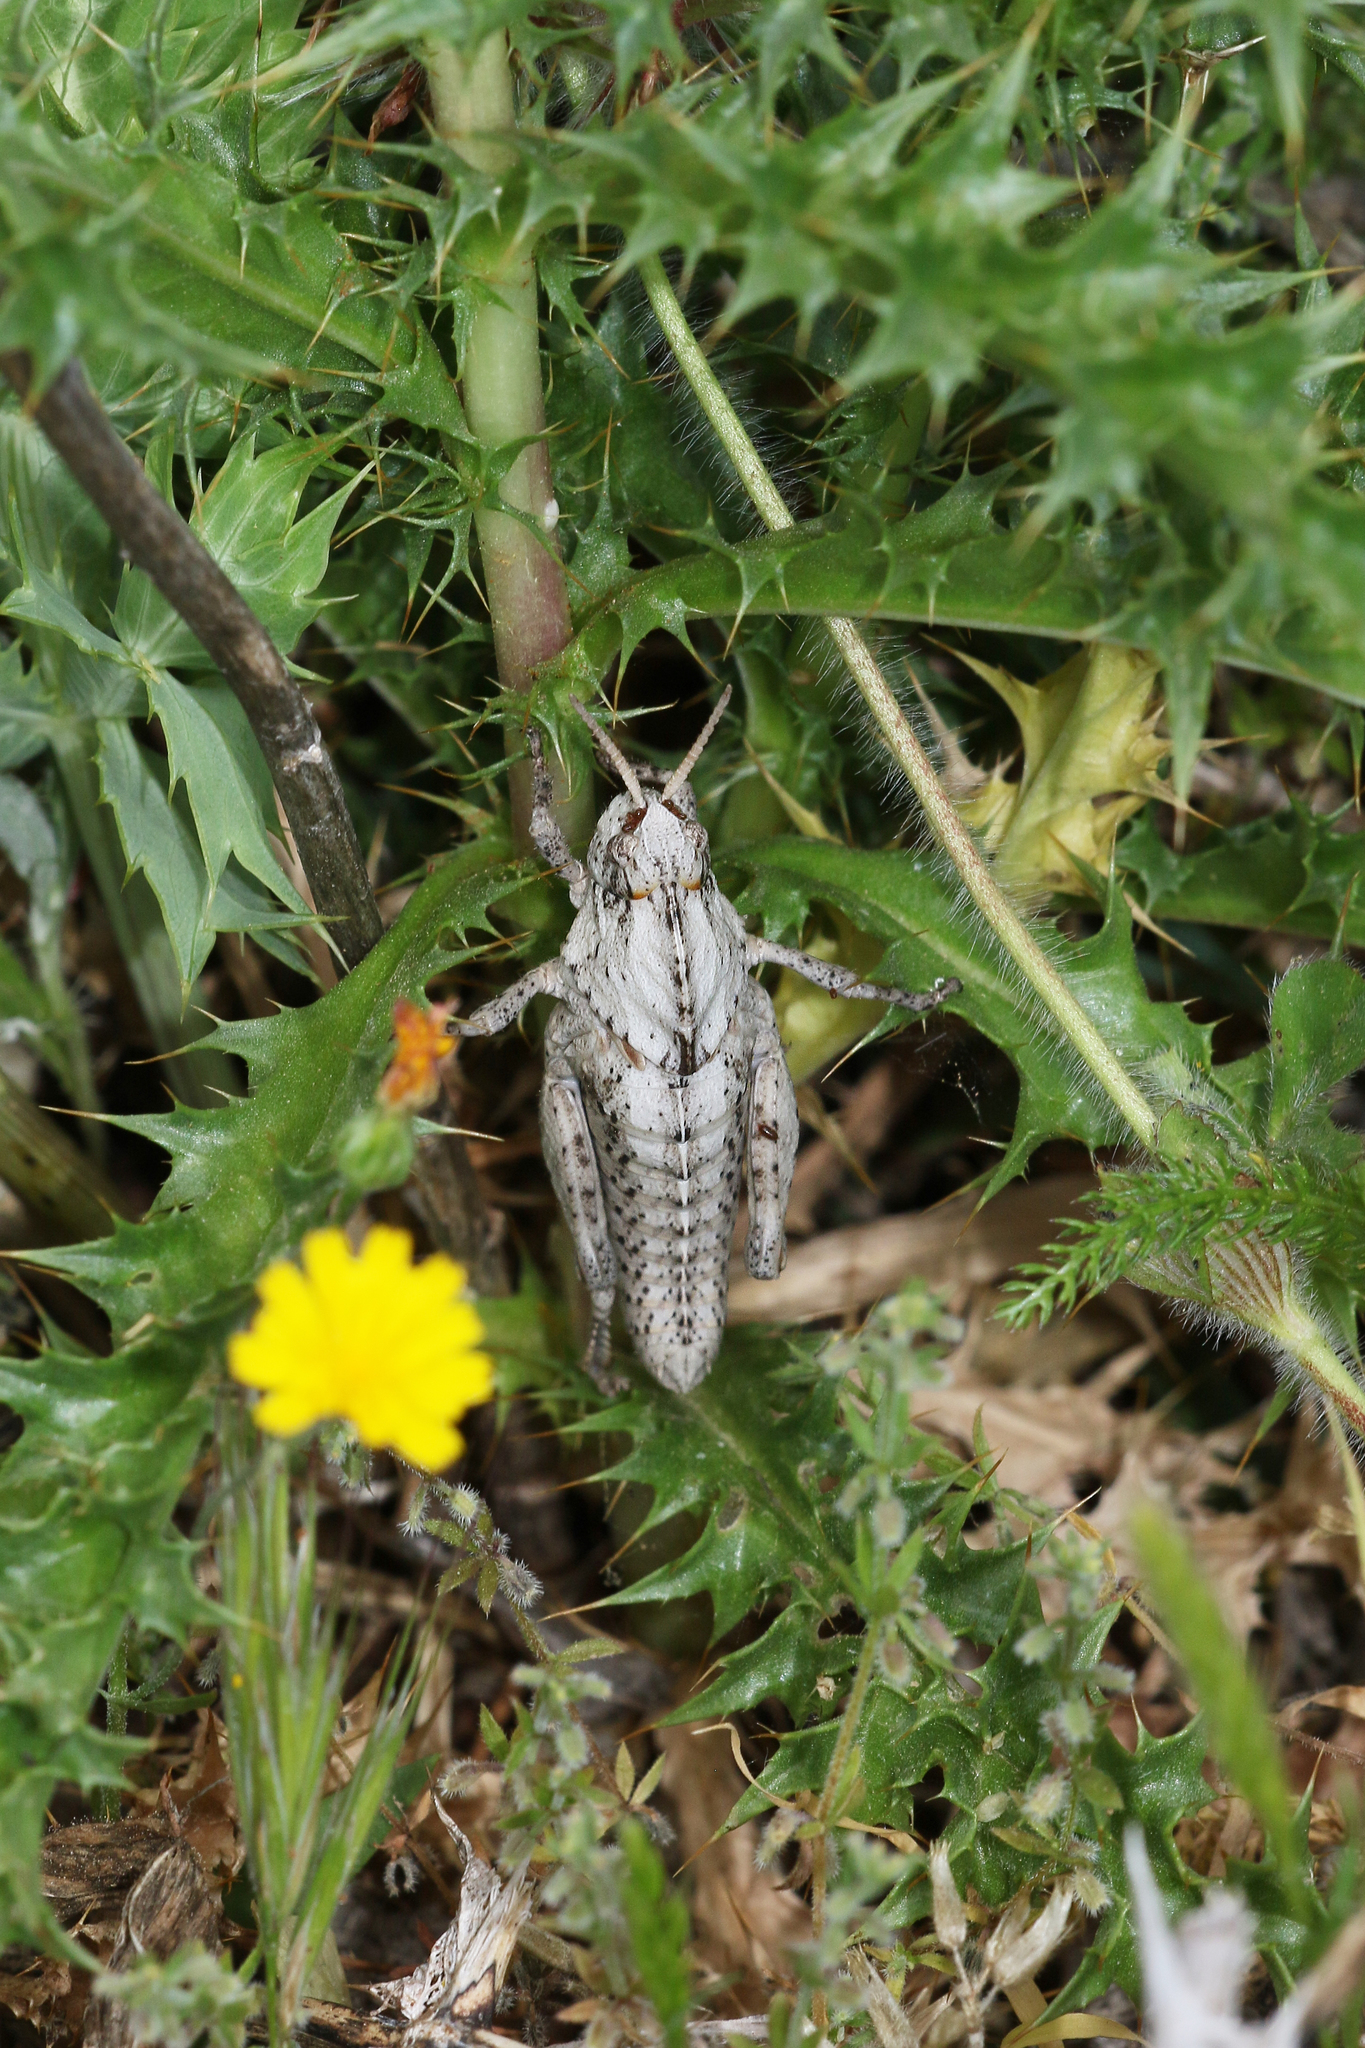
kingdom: Animalia
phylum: Arthropoda
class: Insecta
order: Orthoptera
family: Pamphagidae
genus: Euryparyphes
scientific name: Euryparyphes terrulentus
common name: Earthling stone grasshopper
